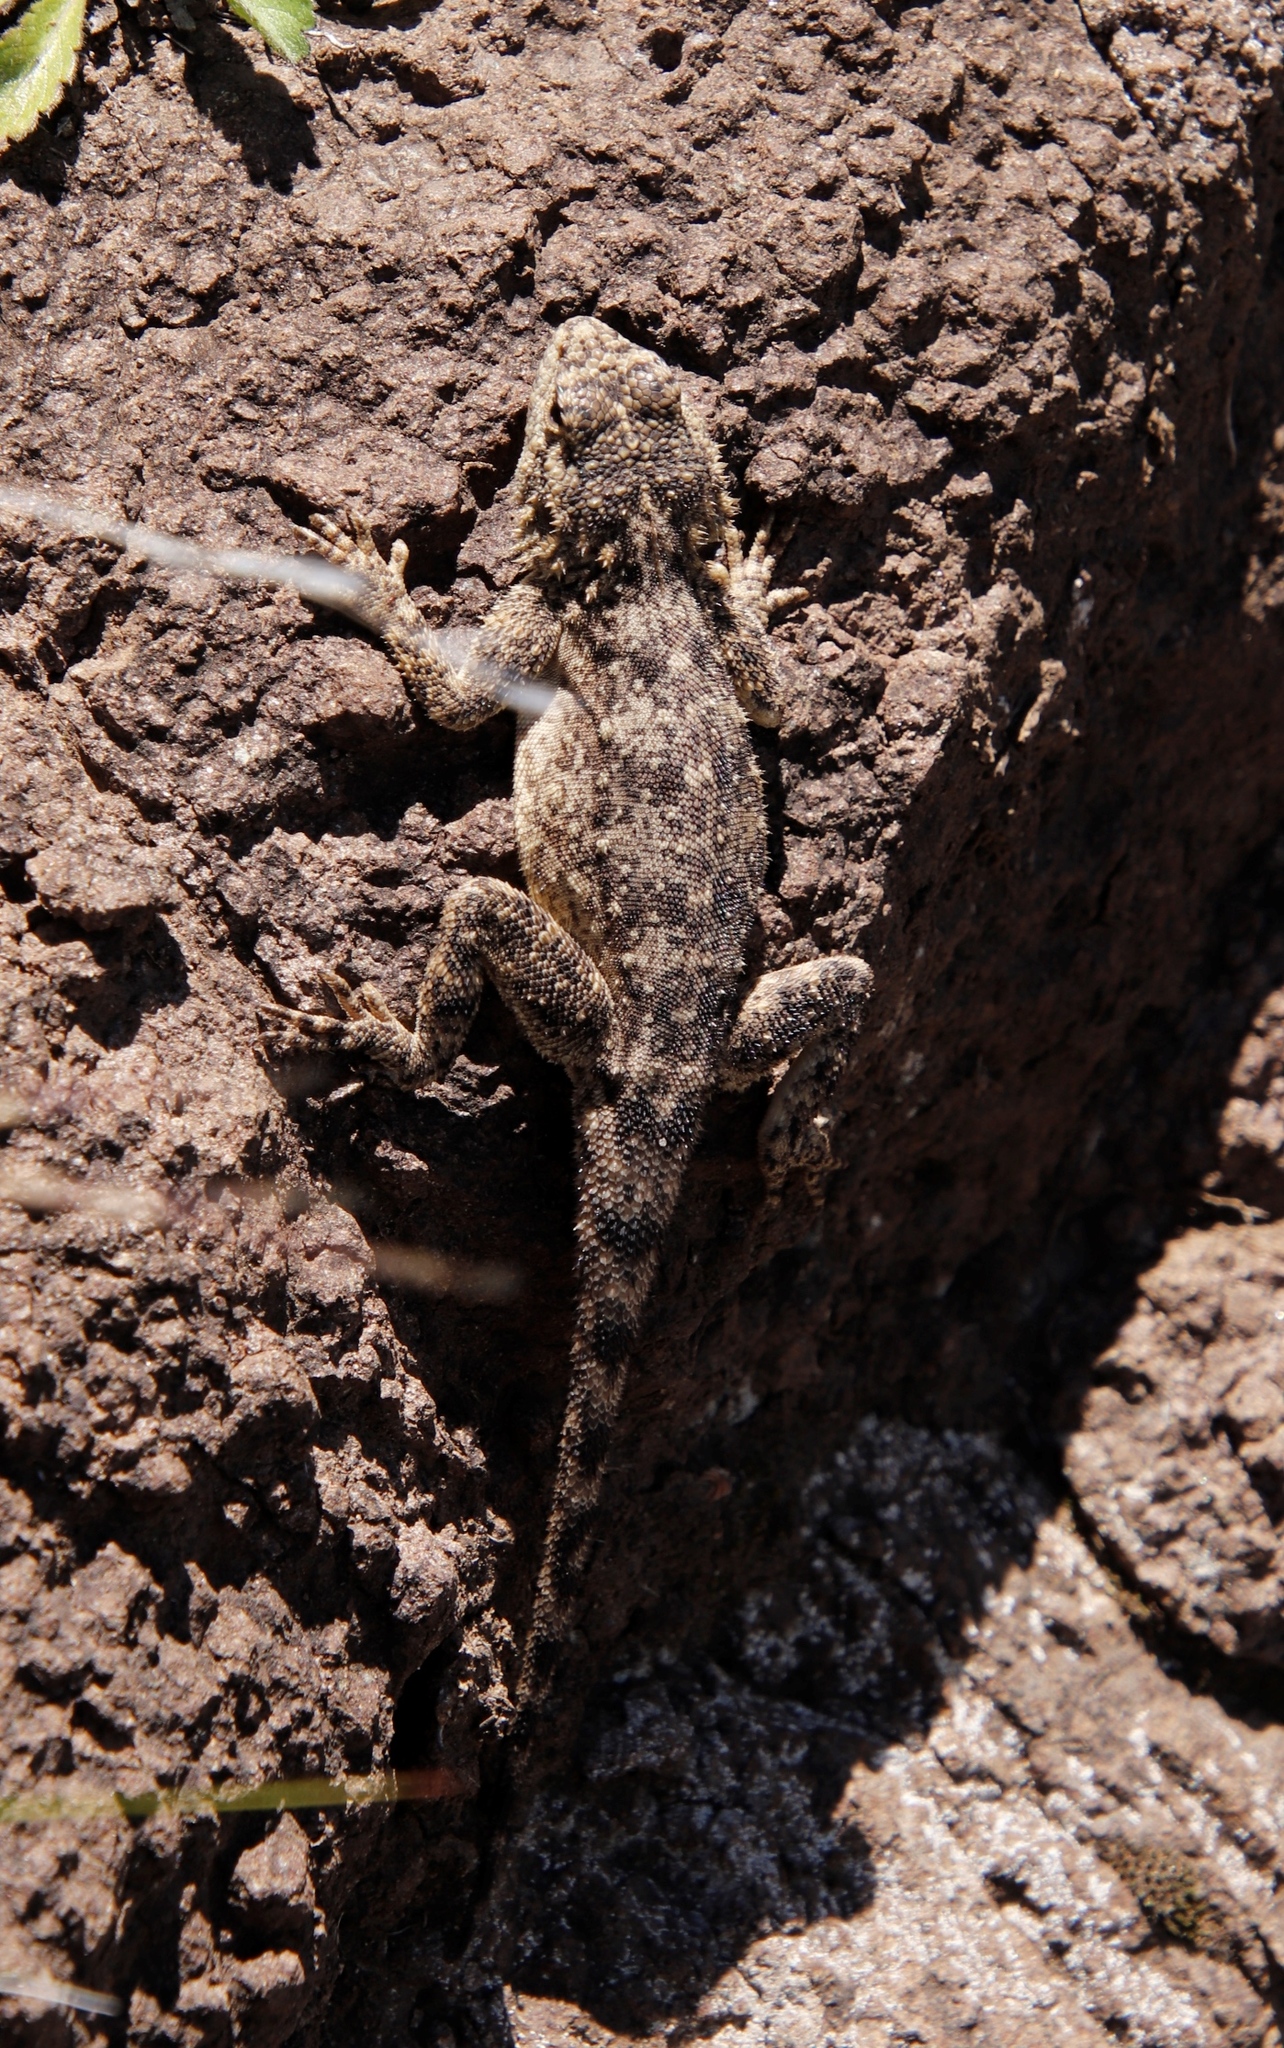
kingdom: Animalia
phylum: Chordata
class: Squamata
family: Agamidae
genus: Agama
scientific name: Agama atra
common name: Southern african rock agama
